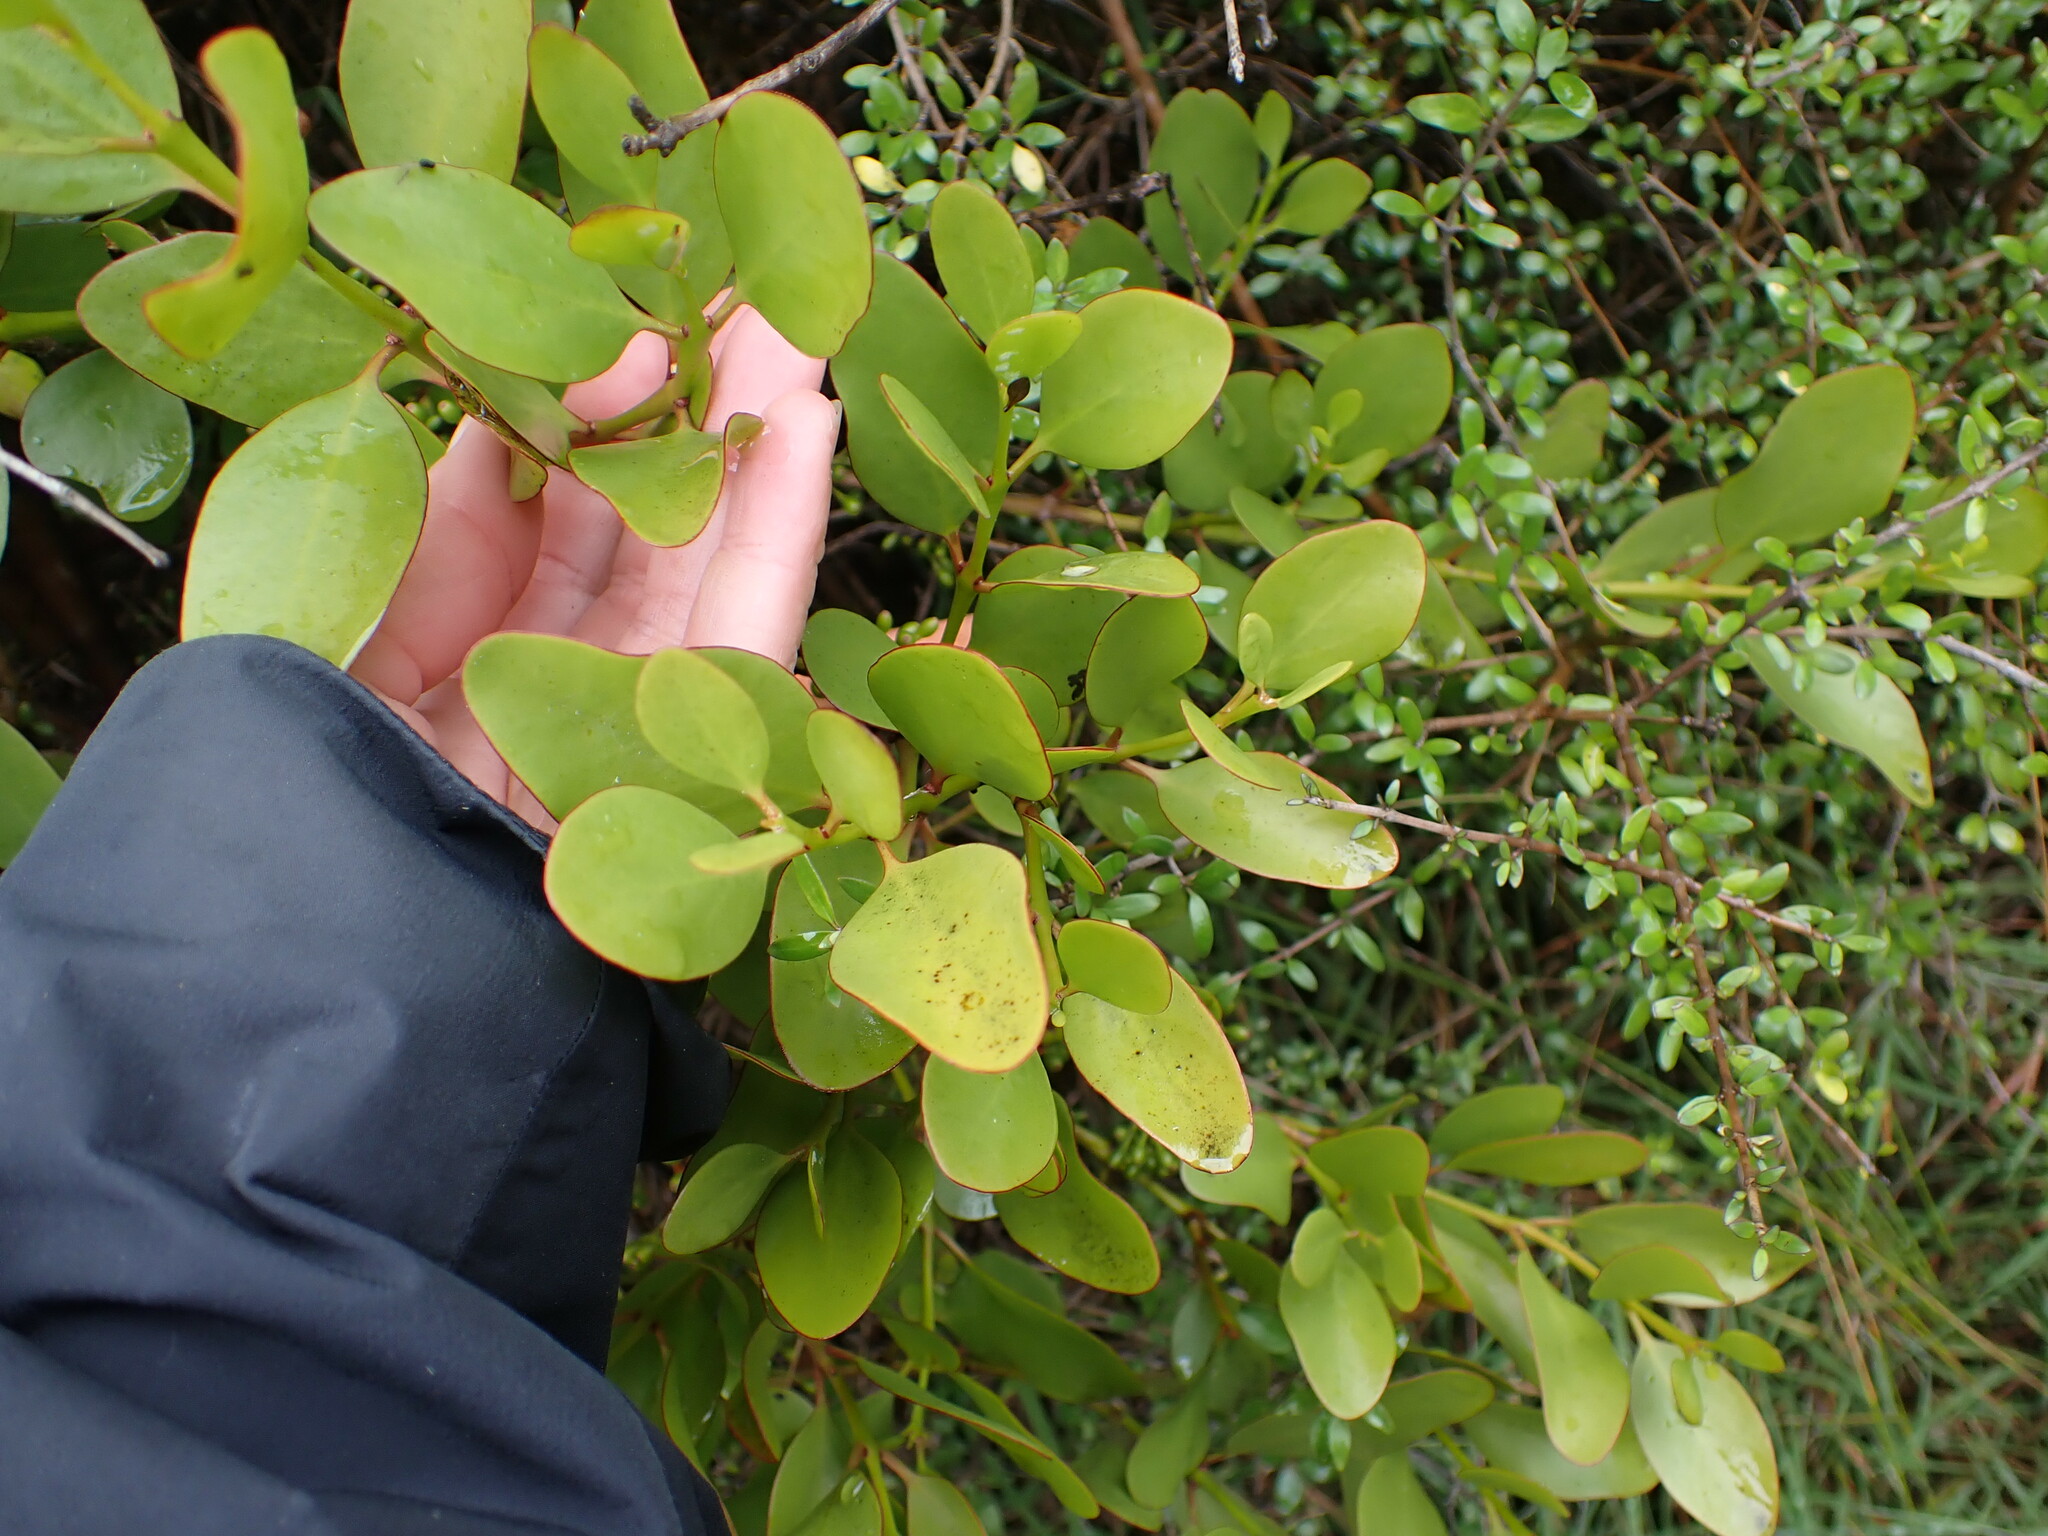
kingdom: Plantae
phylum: Tracheophyta
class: Magnoliopsida
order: Santalales
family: Loranthaceae
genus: Ileostylus
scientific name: Ileostylus micranthus
